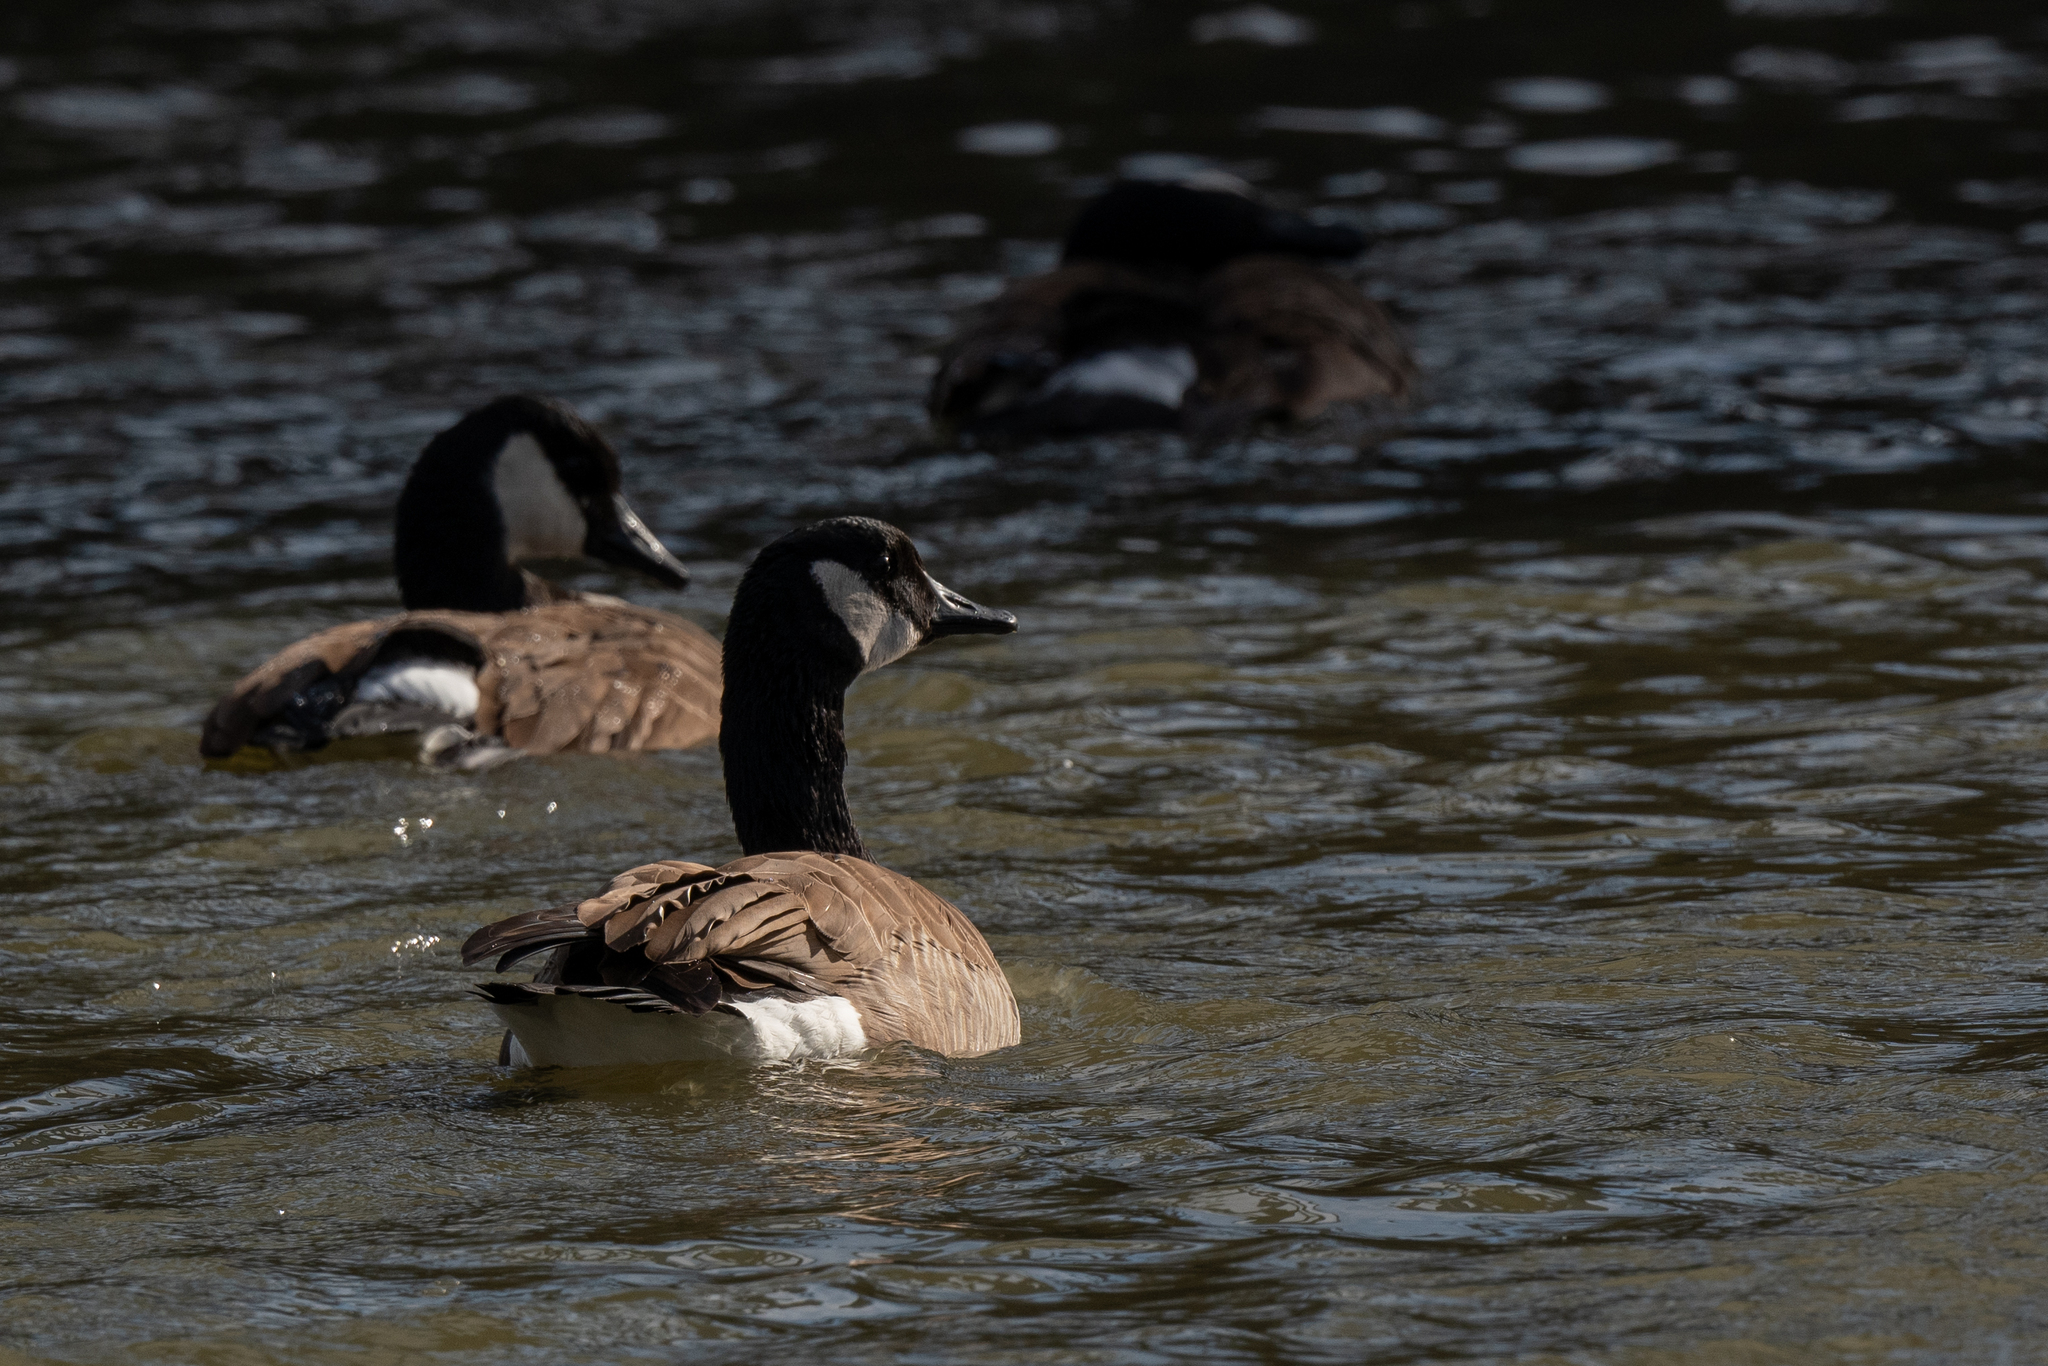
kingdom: Animalia
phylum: Chordata
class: Aves
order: Anseriformes
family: Anatidae
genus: Branta
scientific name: Branta canadensis
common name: Canada goose
